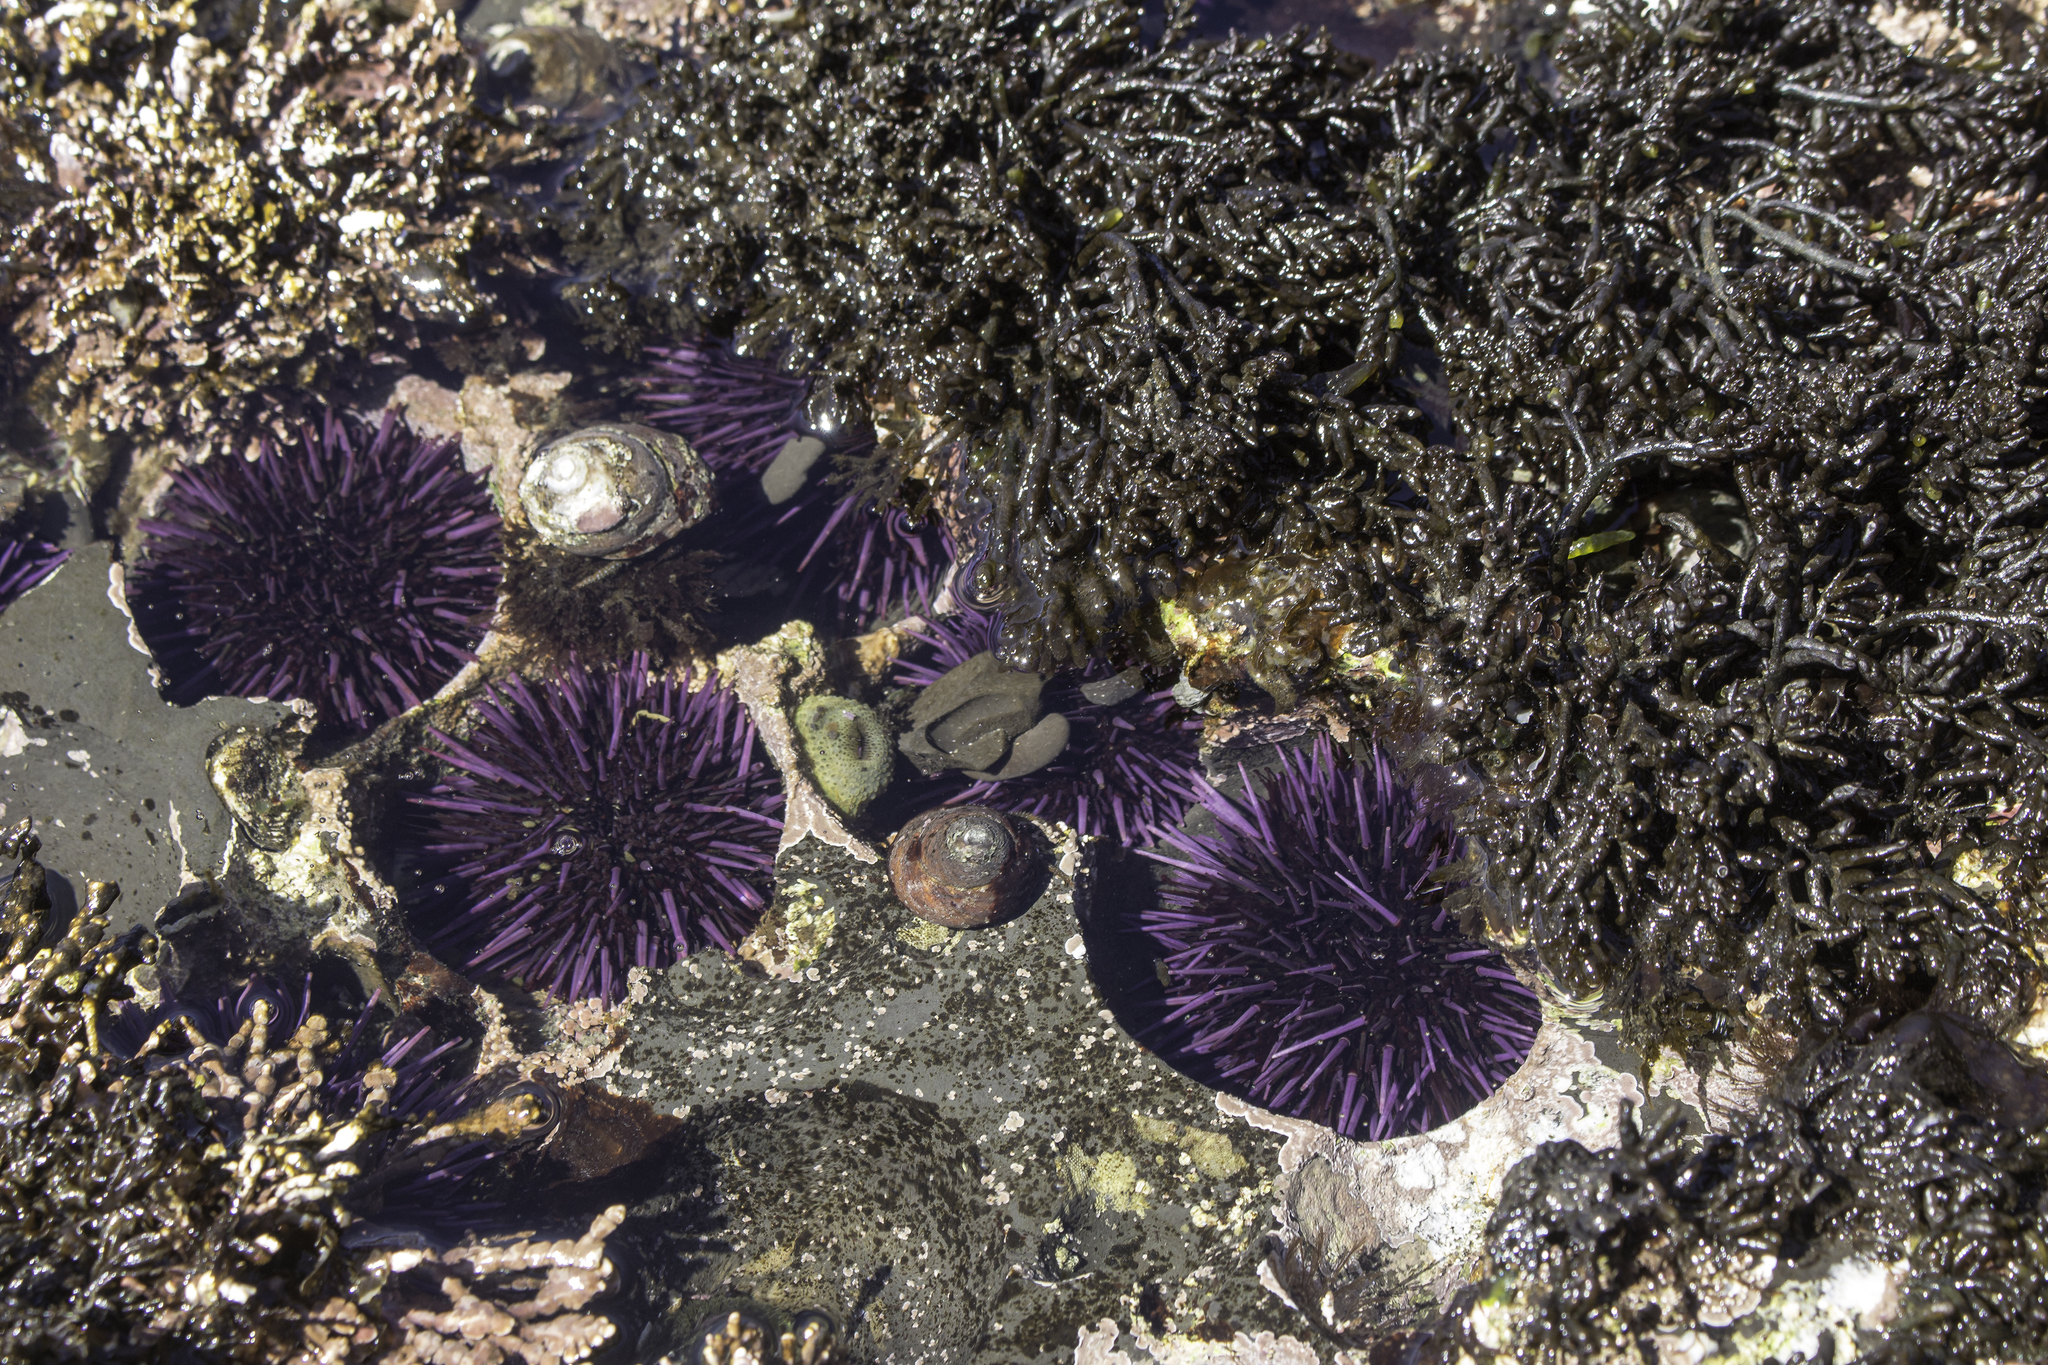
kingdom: Animalia
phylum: Echinodermata
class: Echinoidea
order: Camarodonta
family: Strongylocentrotidae
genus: Strongylocentrotus
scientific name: Strongylocentrotus purpuratus
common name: Purple sea urchin
